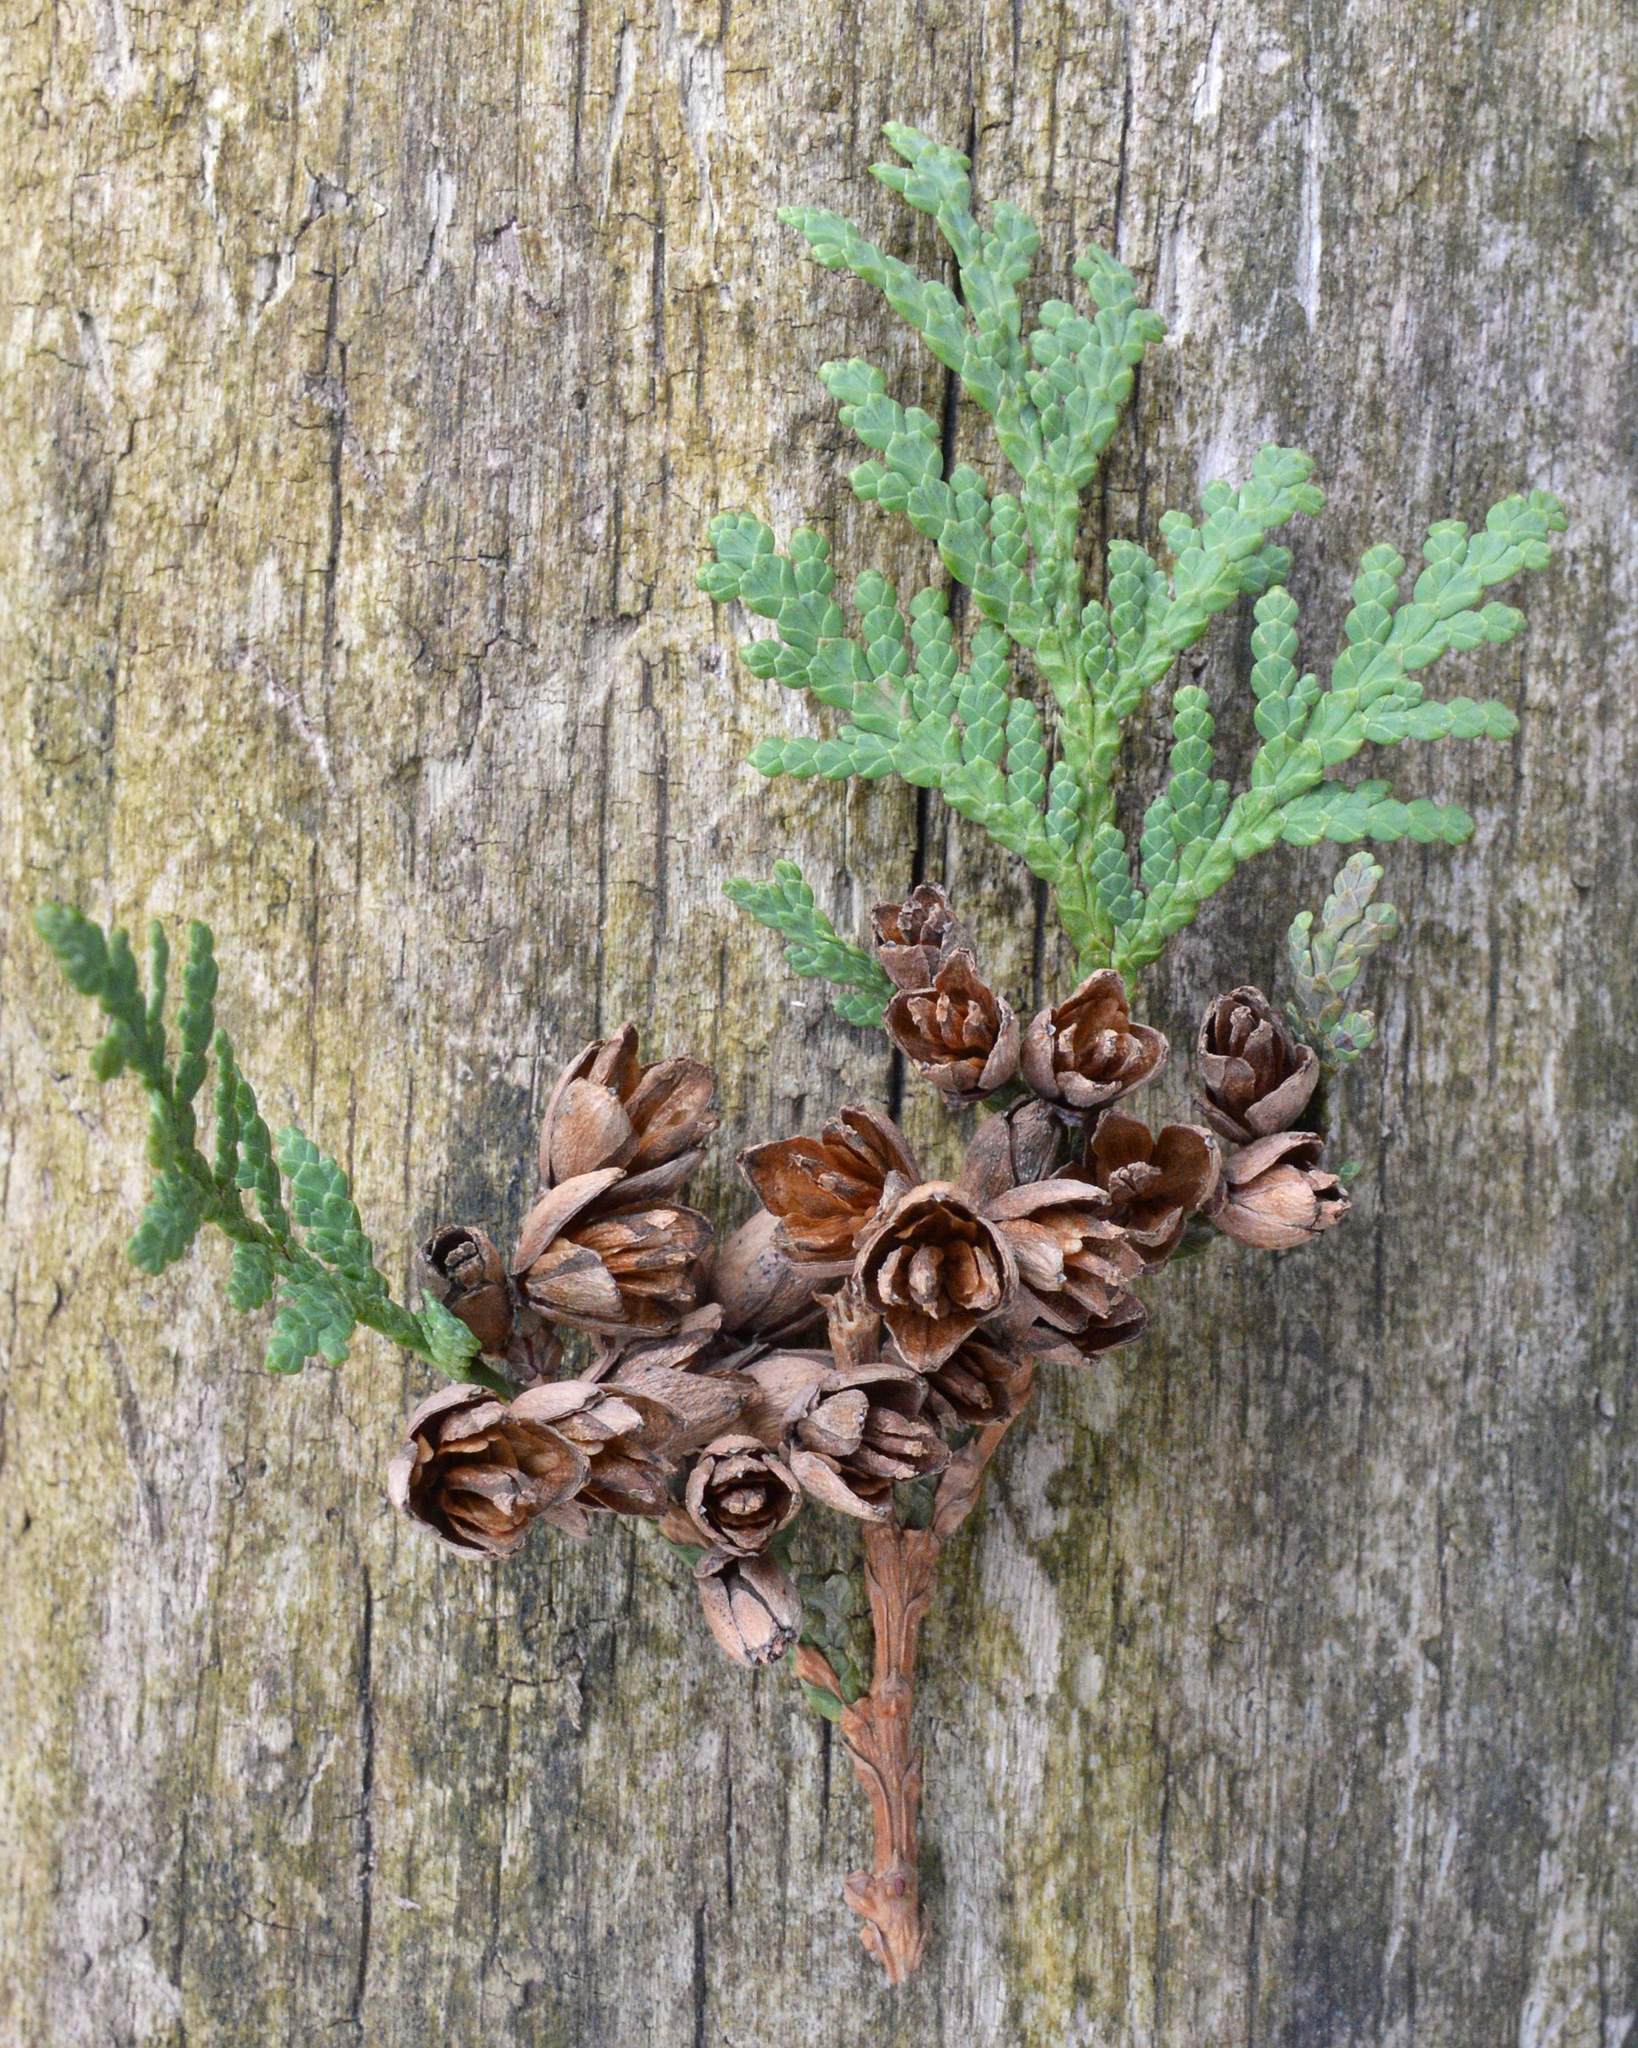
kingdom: Plantae
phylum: Tracheophyta
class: Pinopsida
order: Pinales
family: Cupressaceae
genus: Thuja
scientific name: Thuja occidentalis
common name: Northern white-cedar
